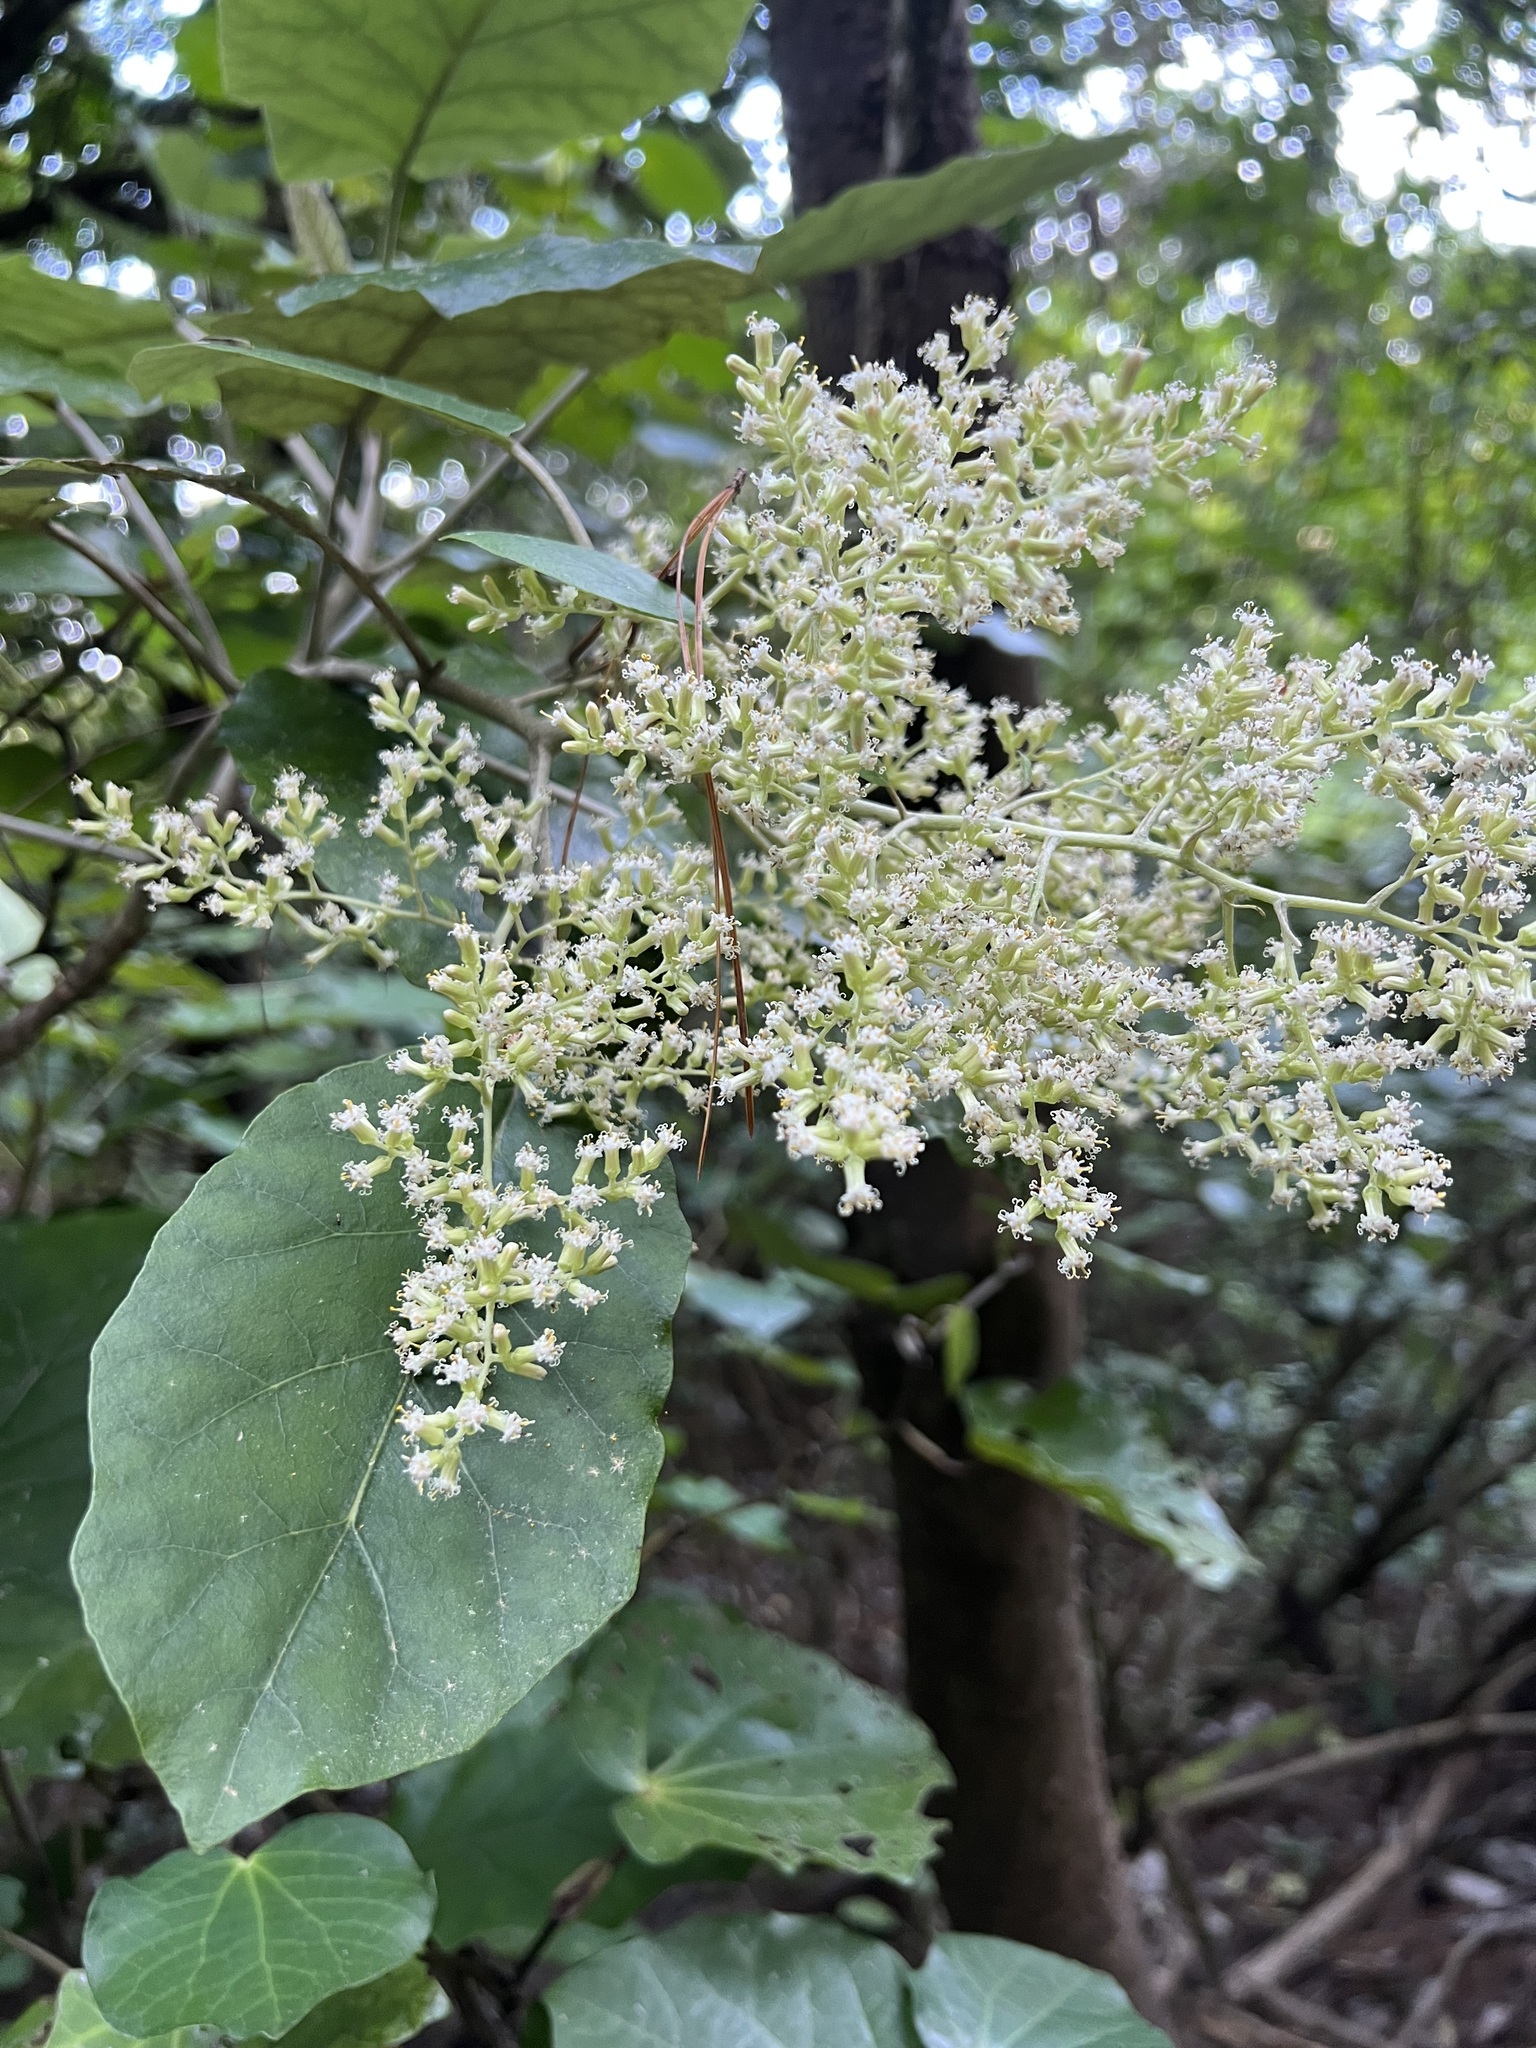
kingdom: Plantae
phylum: Tracheophyta
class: Magnoliopsida
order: Asterales
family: Asteraceae
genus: Brachyglottis
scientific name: Brachyglottis repanda
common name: Hedge ragwort
